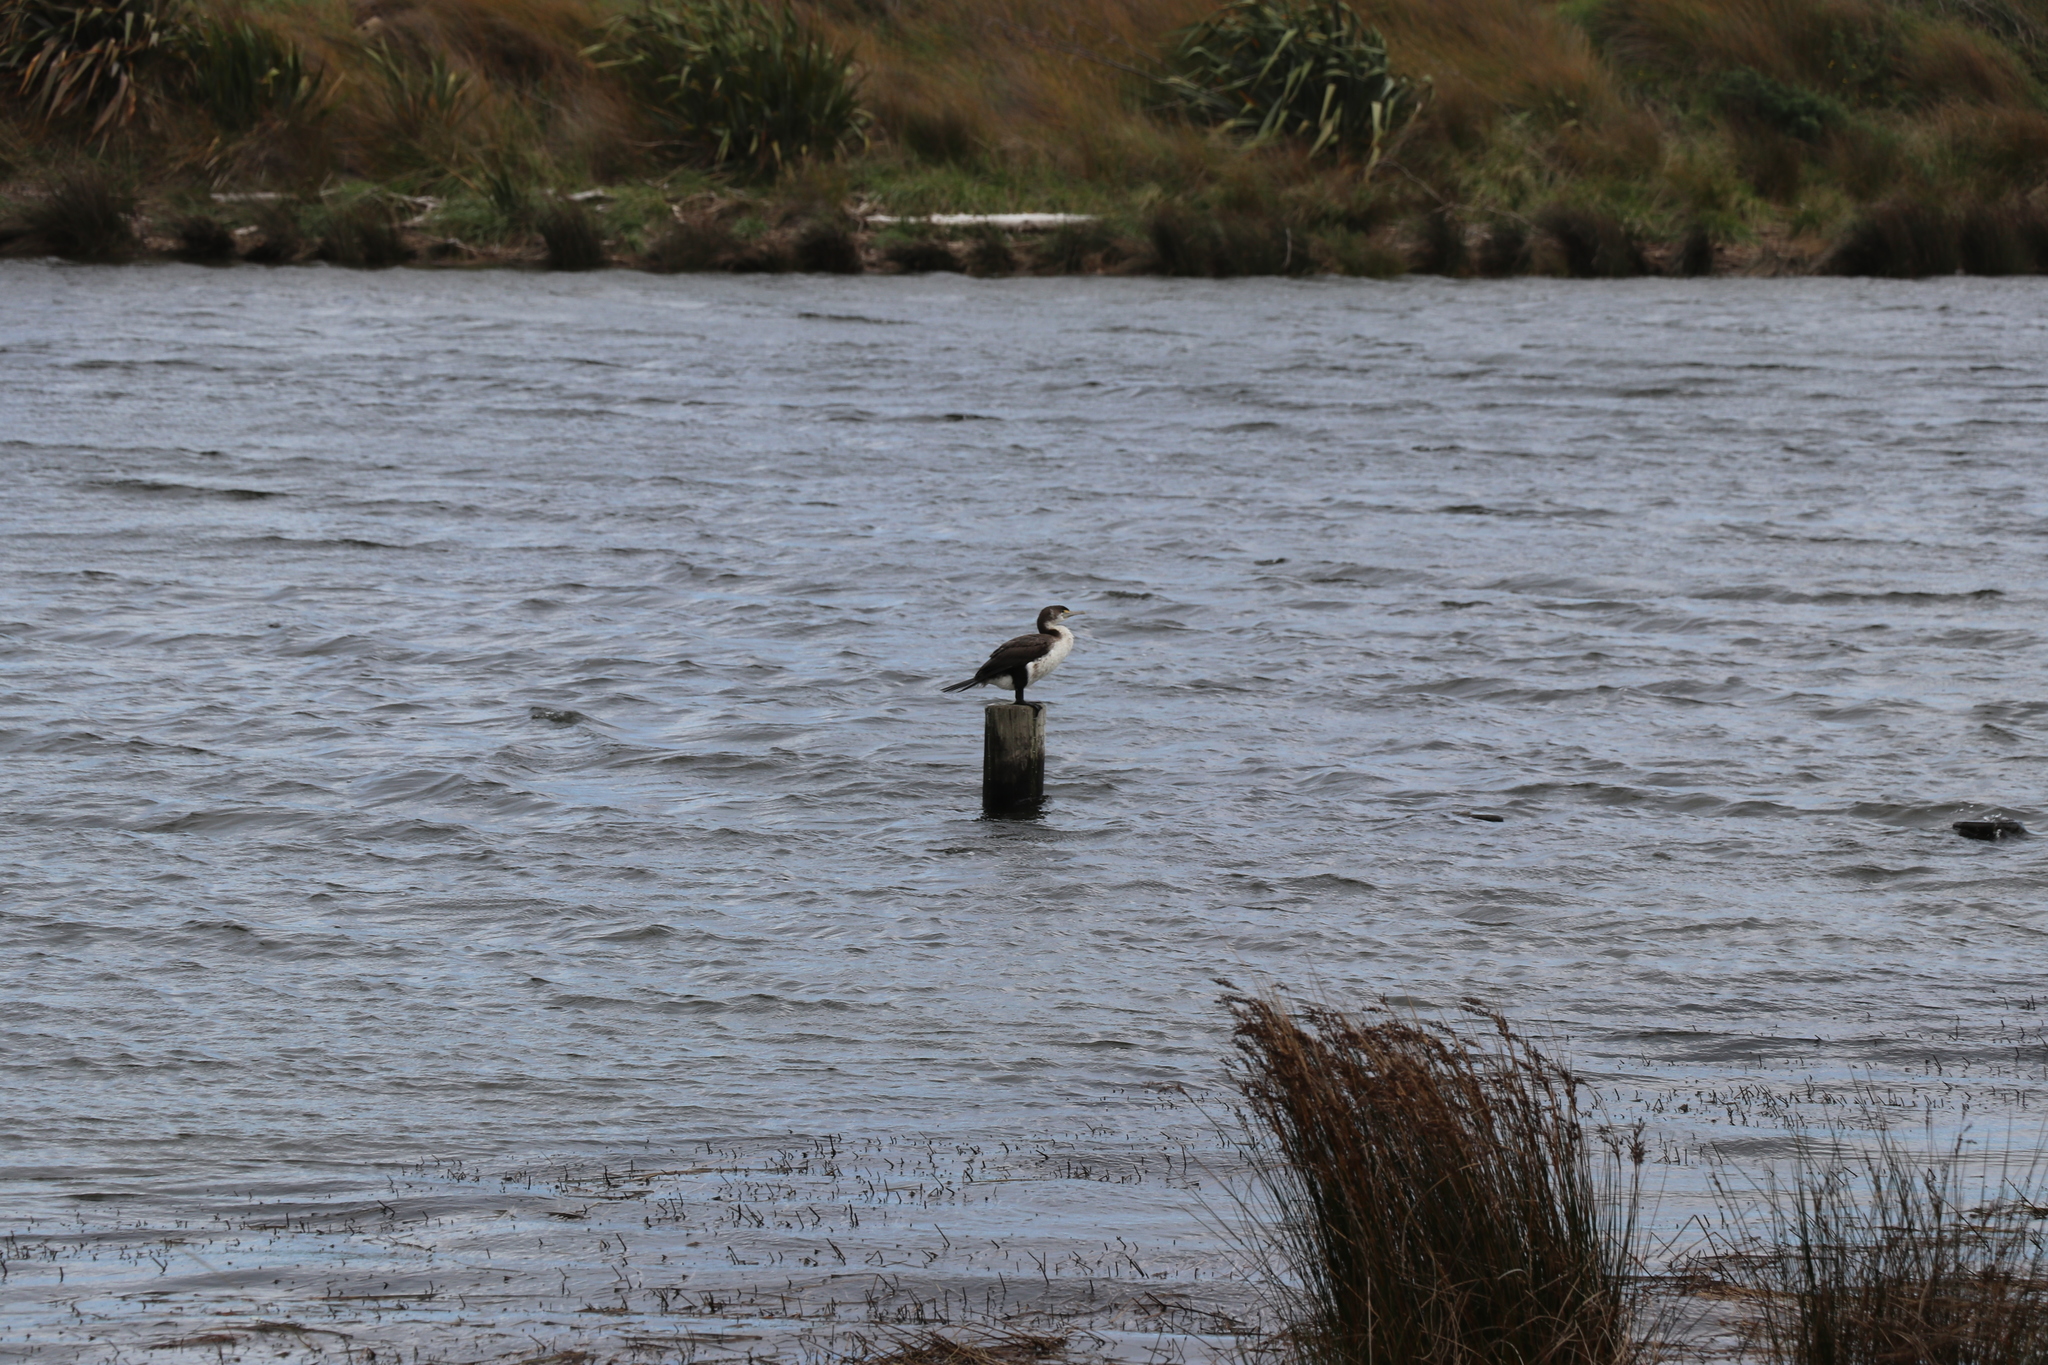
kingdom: Animalia
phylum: Chordata
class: Aves
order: Suliformes
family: Phalacrocoracidae
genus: Phalacrocorax
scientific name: Phalacrocorax varius
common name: Pied cormorant
